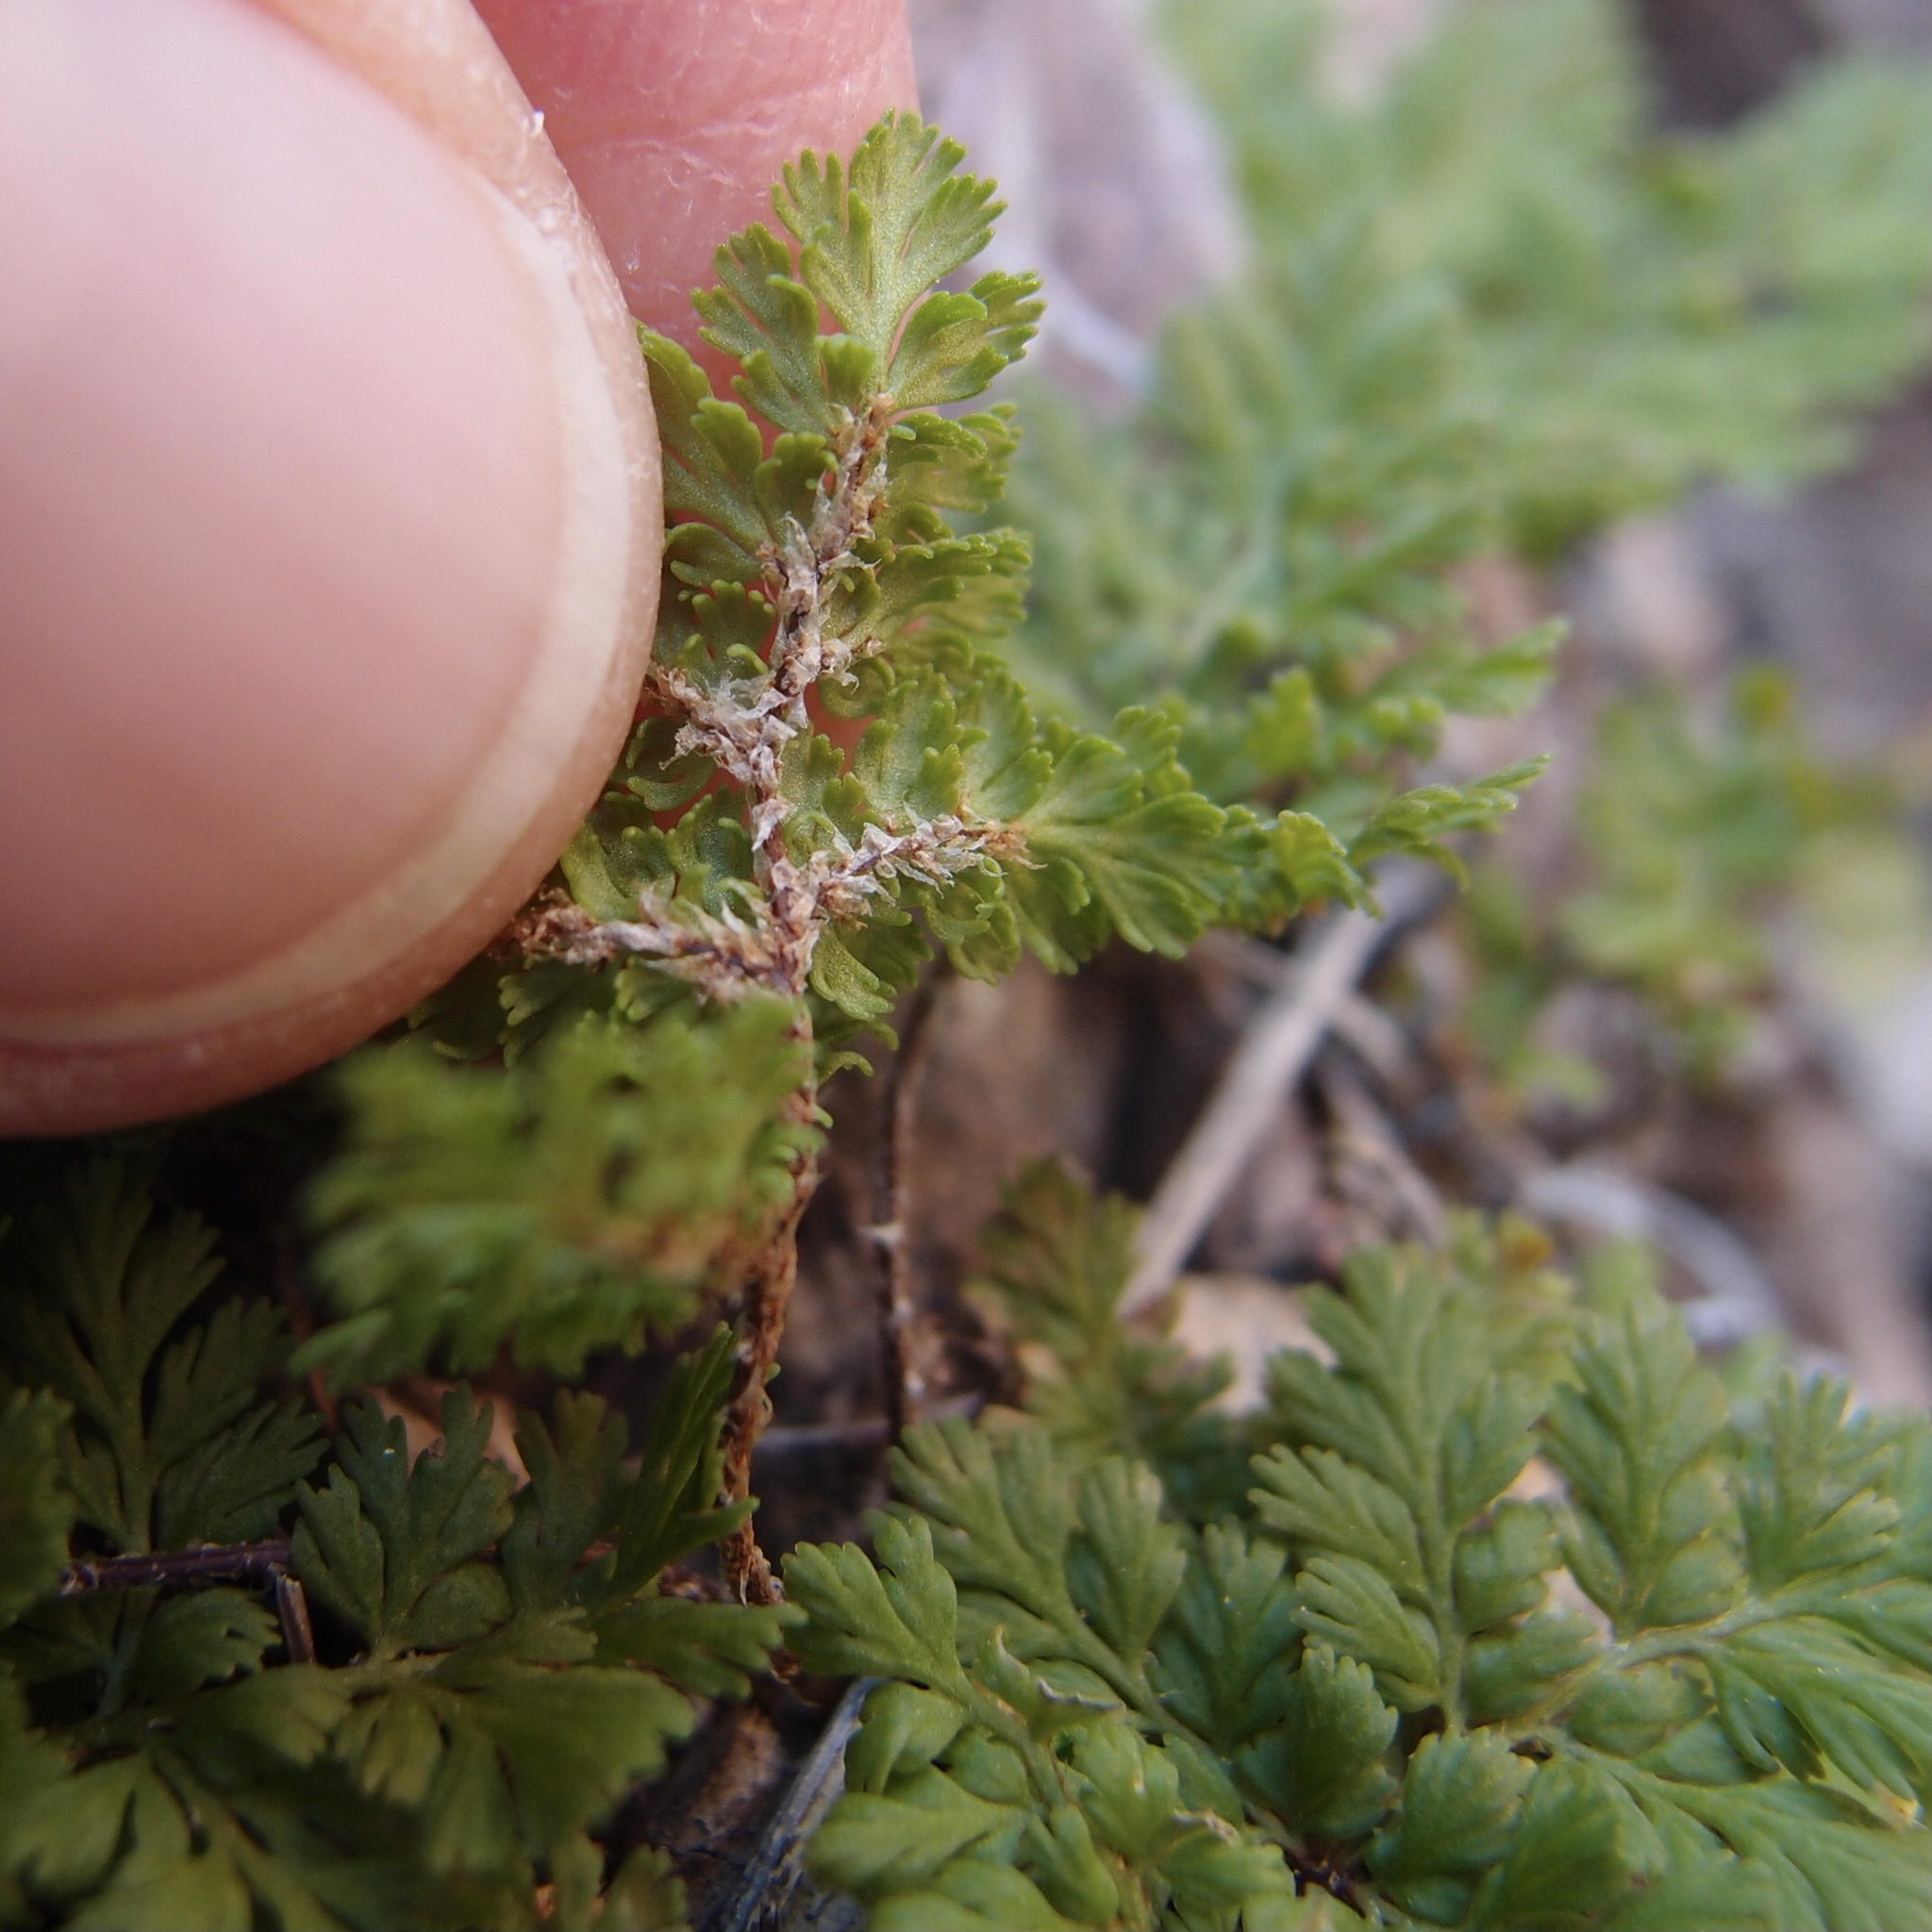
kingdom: Plantae
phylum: Tracheophyta
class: Polypodiopsida
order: Polypodiales
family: Pteridaceae
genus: Myriopteris
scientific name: Myriopteris pringlei
